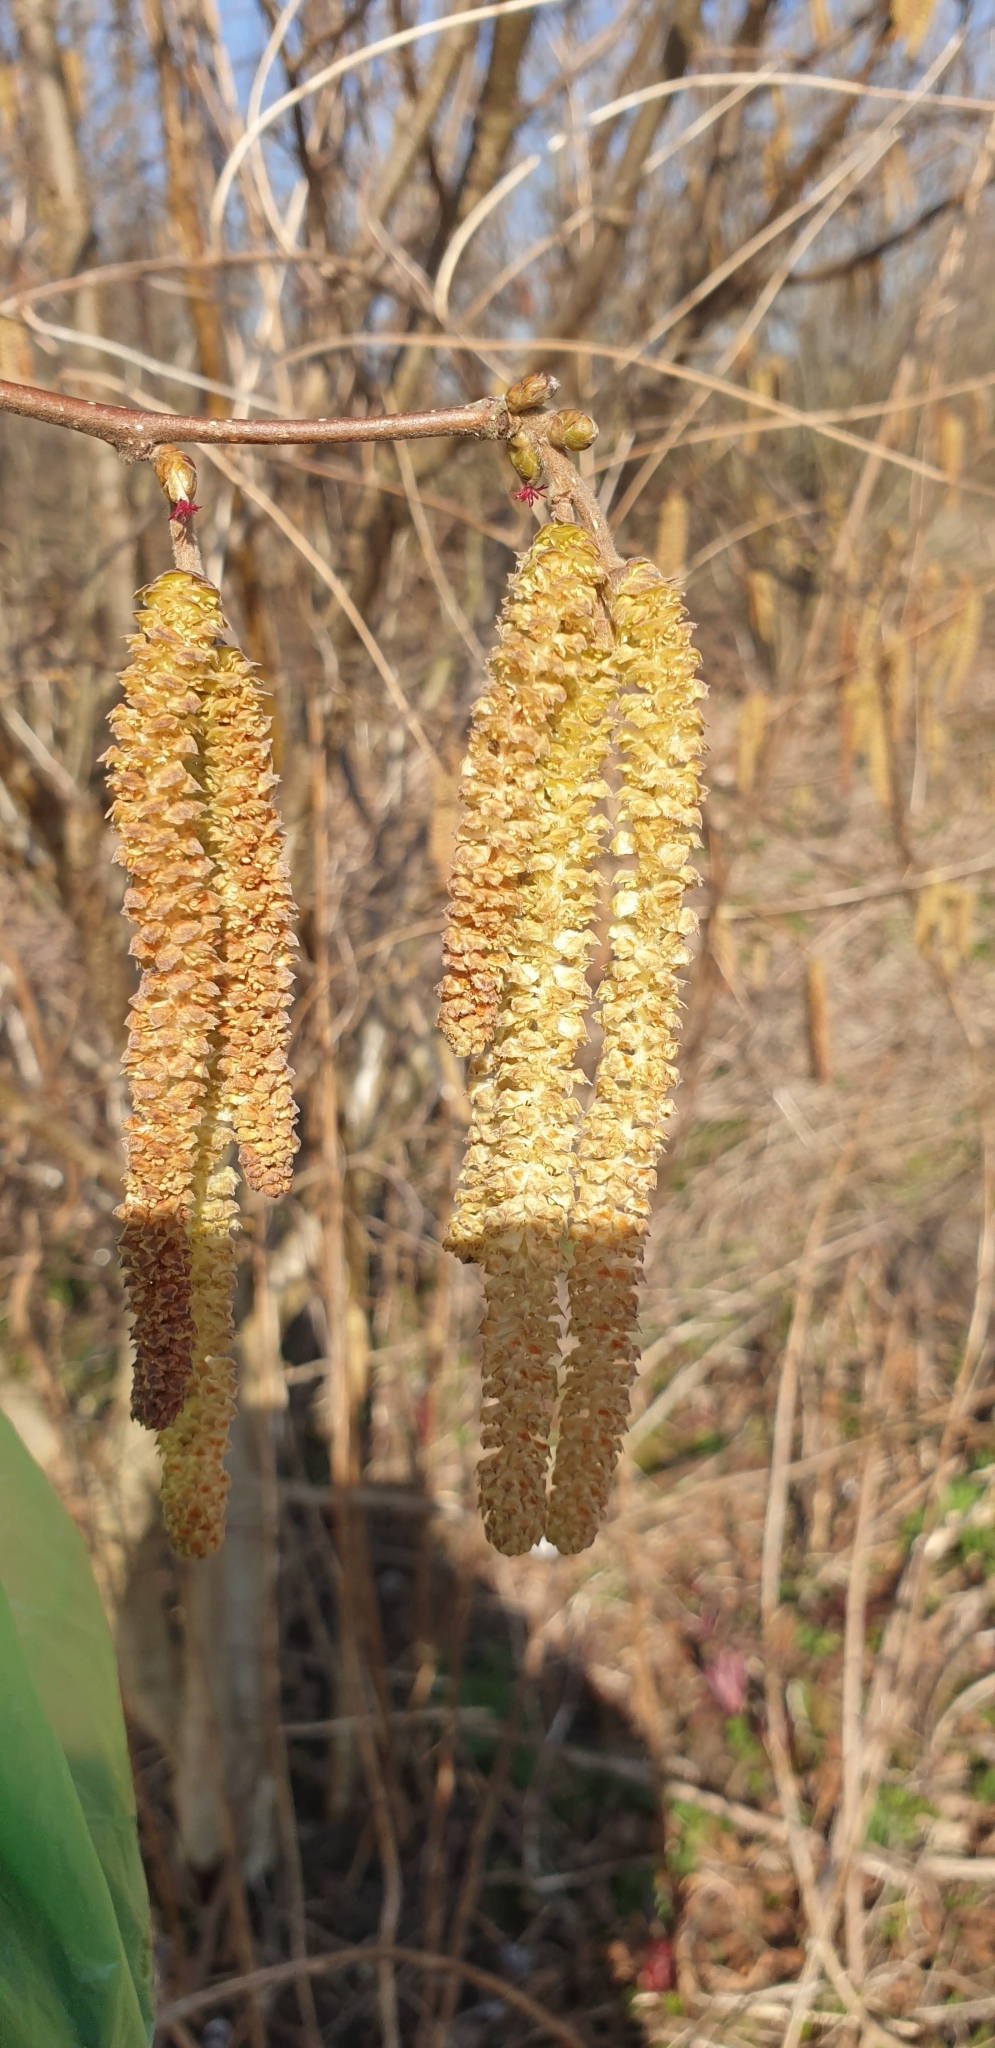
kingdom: Plantae
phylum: Tracheophyta
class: Magnoliopsida
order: Fagales
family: Betulaceae
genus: Corylus
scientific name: Corylus avellana
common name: European hazel
